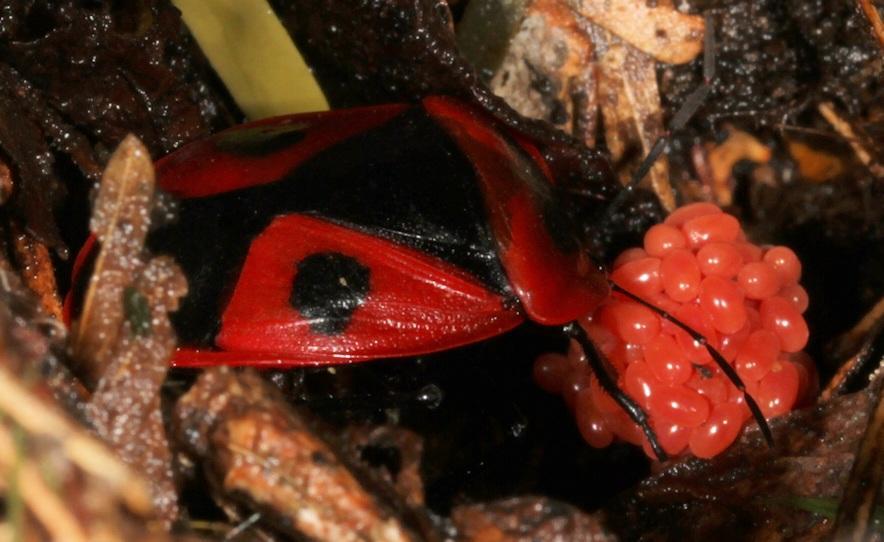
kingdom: Animalia
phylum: Arthropoda
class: Insecta
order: Hemiptera
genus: Dismegistus
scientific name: Dismegistus
